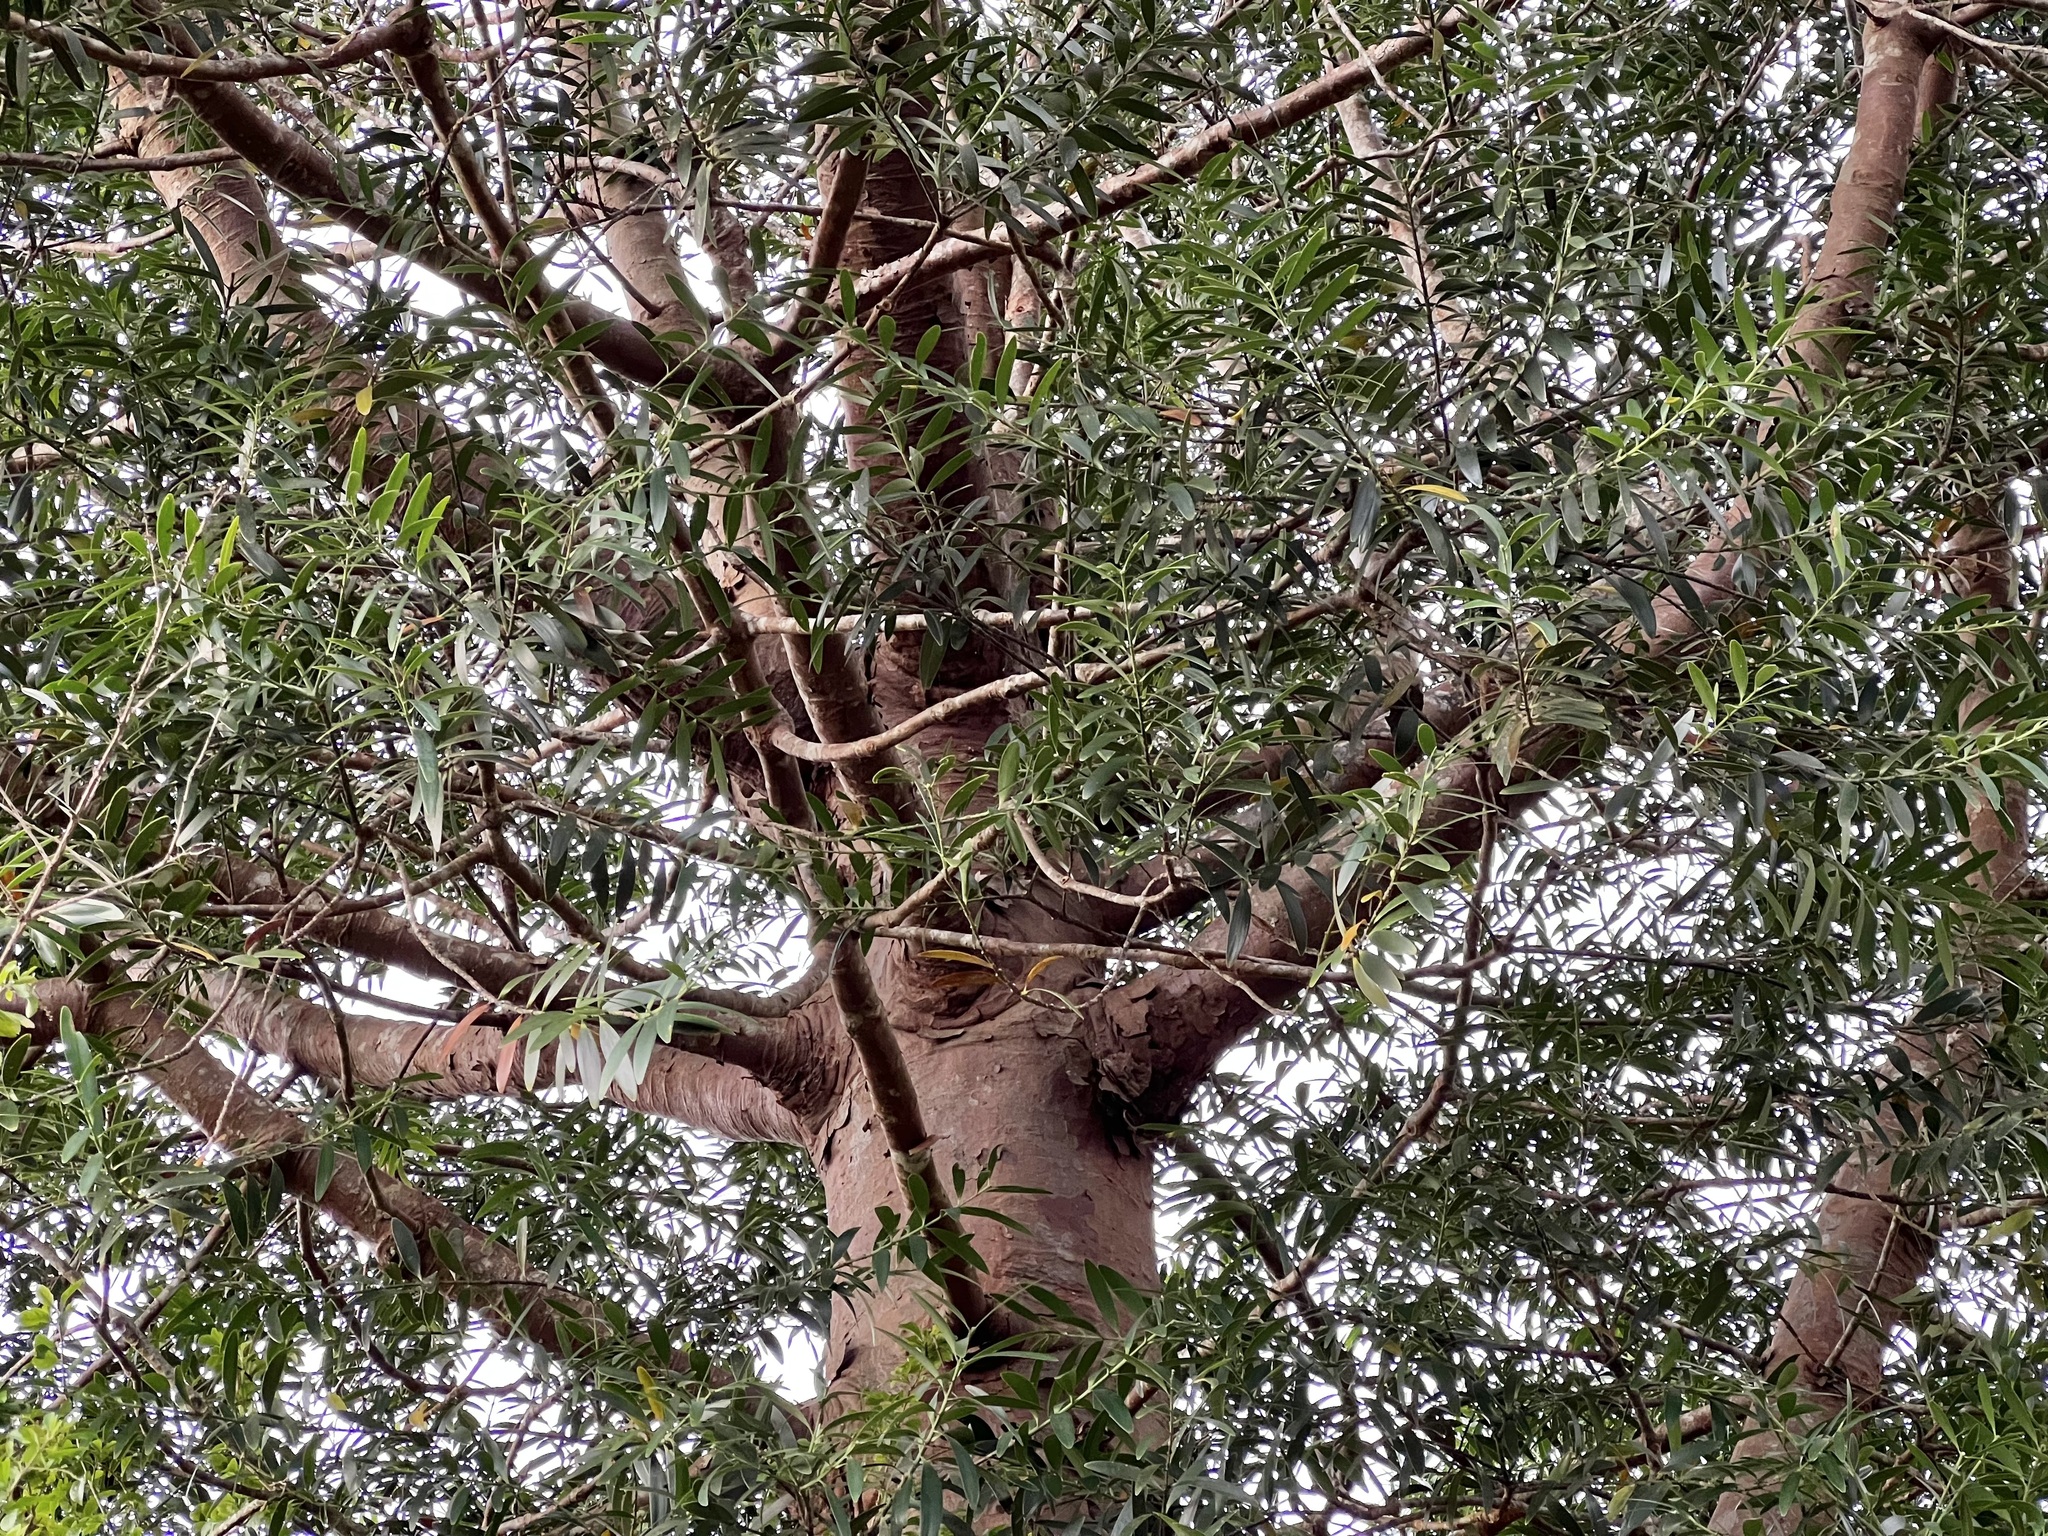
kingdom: Plantae
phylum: Tracheophyta
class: Pinopsida
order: Pinales
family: Araucariaceae
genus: Agathis
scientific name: Agathis lanceolata
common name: Koghis kauri
